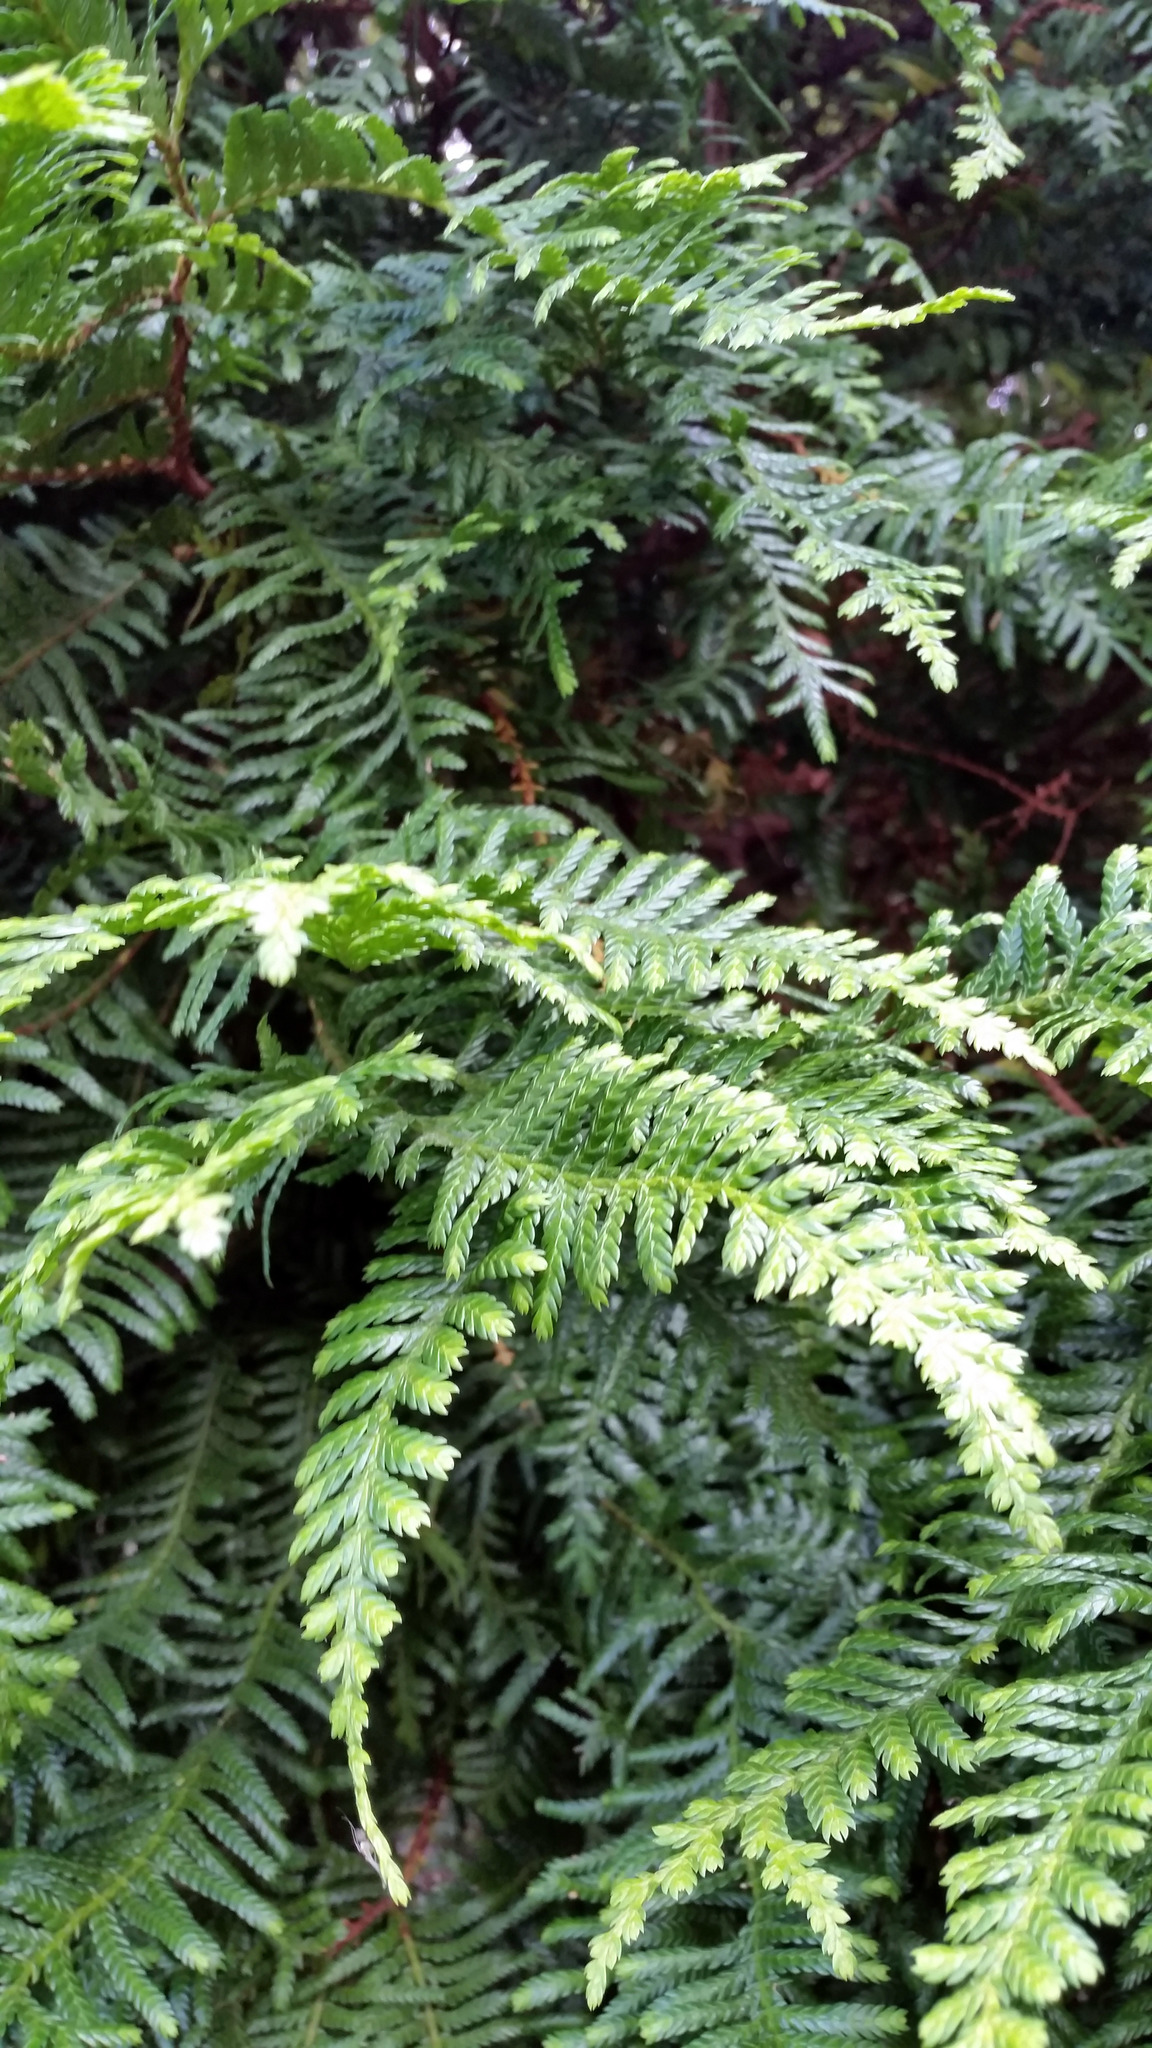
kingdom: Plantae
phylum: Tracheophyta
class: Pinopsida
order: Pinales
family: Cupressaceae
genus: Libocedrus
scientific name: Libocedrus plumosa
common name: New zealand cedar
